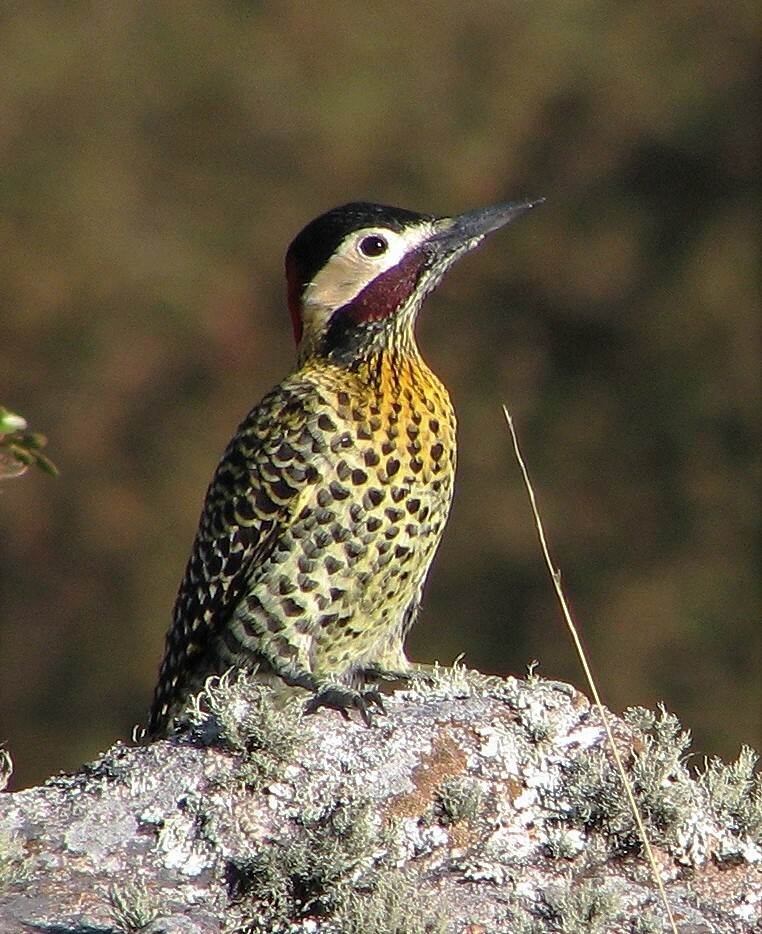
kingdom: Animalia
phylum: Chordata
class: Aves
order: Piciformes
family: Picidae
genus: Colaptes
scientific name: Colaptes melanochloros
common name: Green-barred woodpecker
